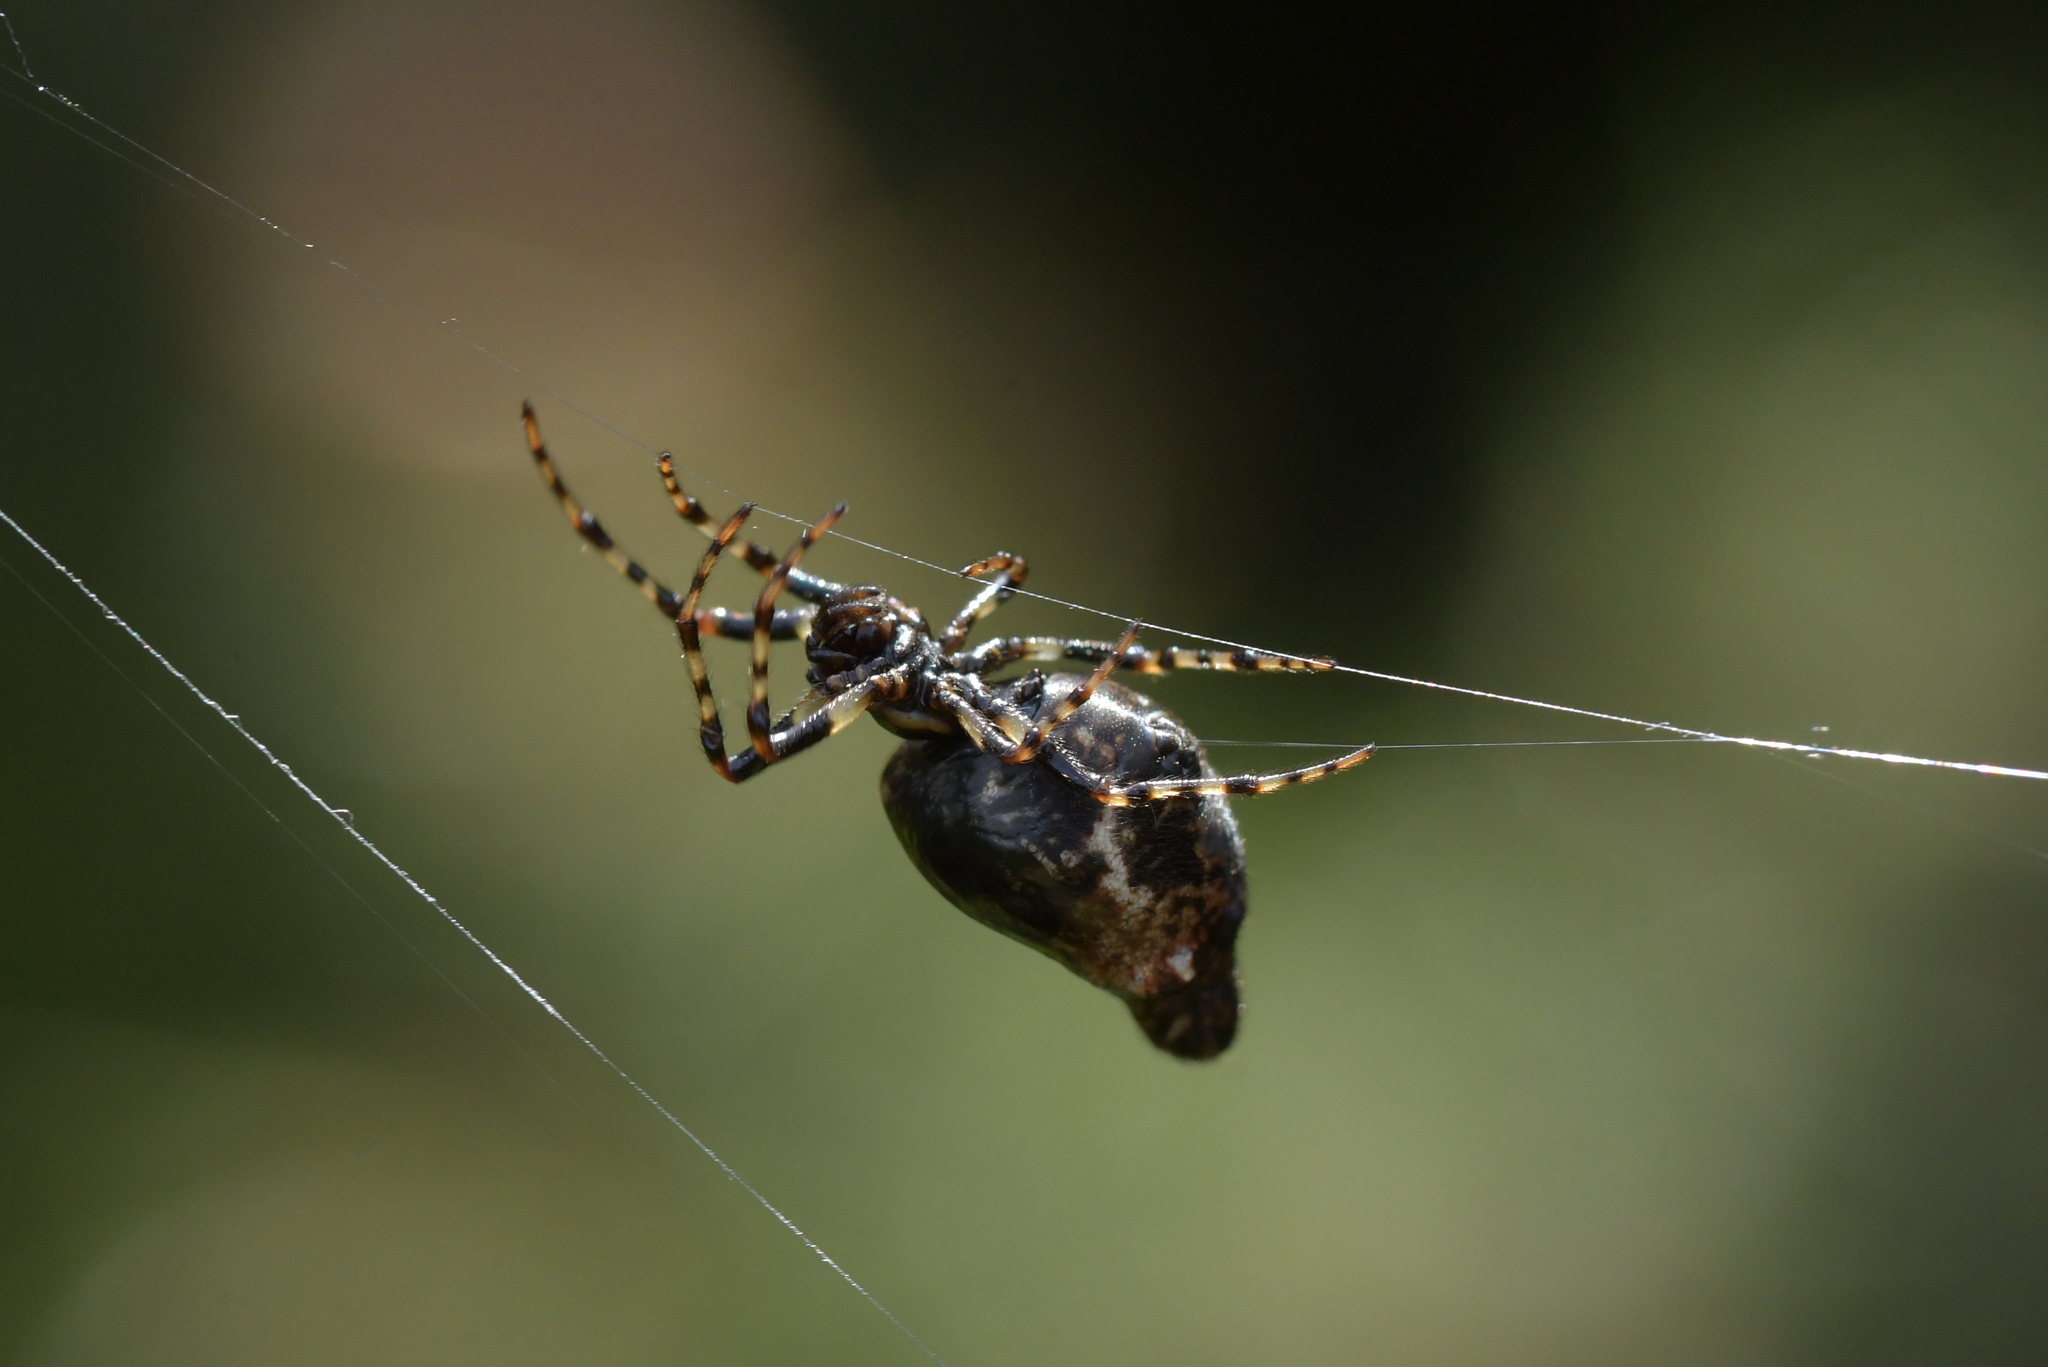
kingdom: Animalia
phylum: Arthropoda
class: Arachnida
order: Araneae
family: Araneidae
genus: Cyclosa
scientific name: Cyclosa trilobata
